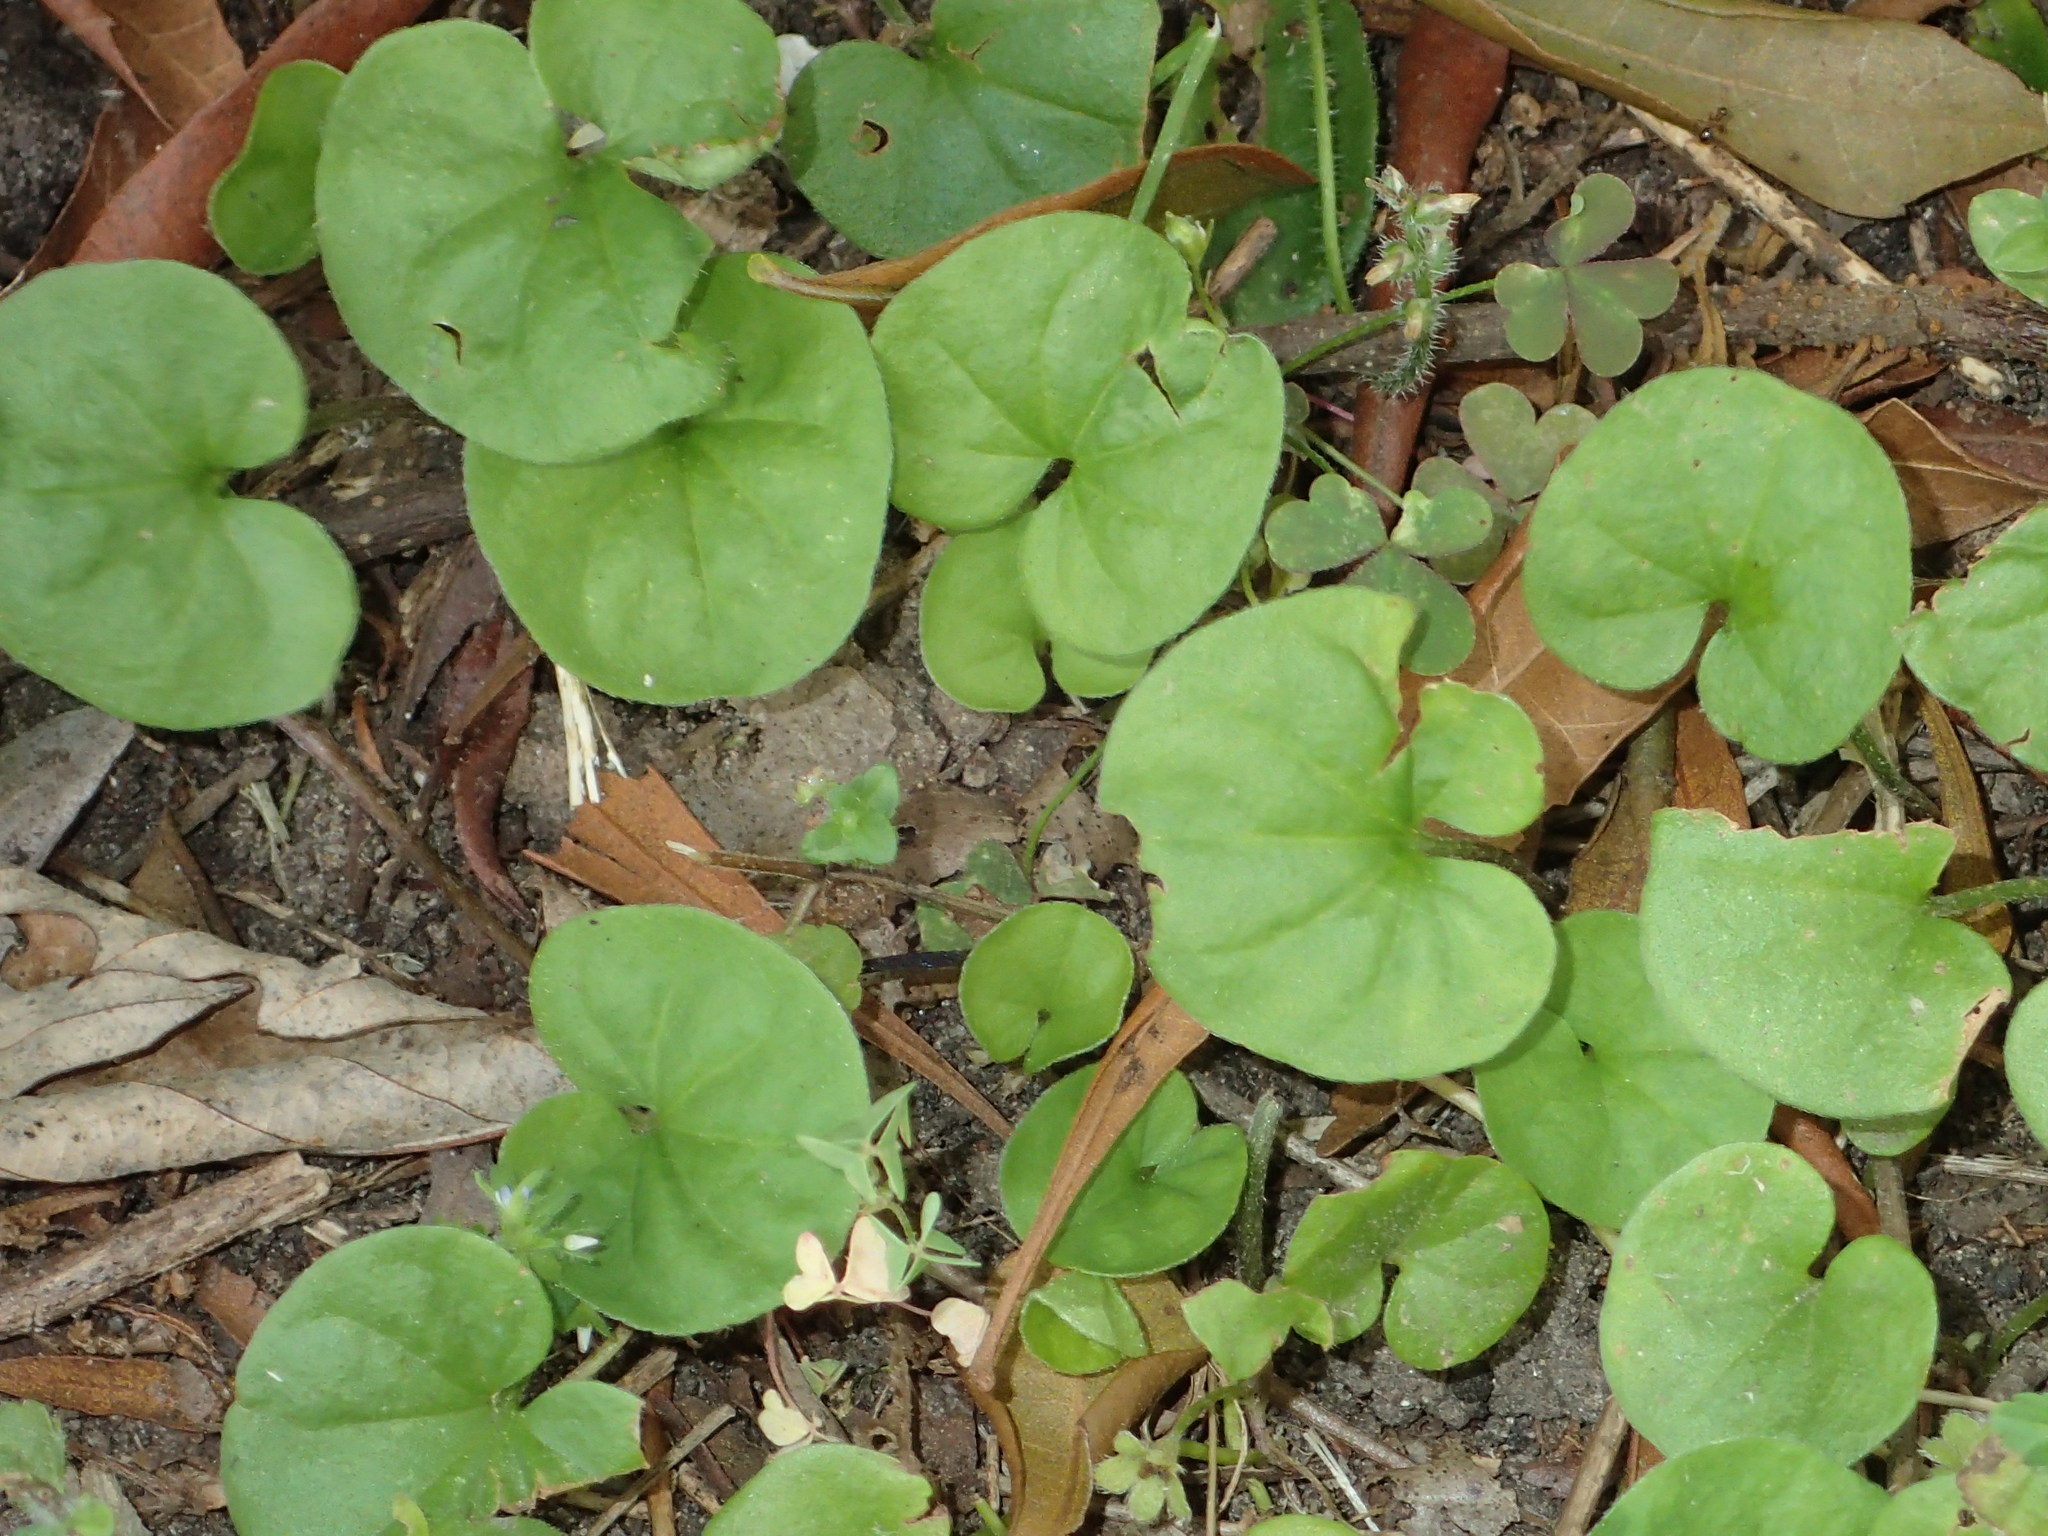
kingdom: Plantae
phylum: Tracheophyta
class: Magnoliopsida
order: Solanales
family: Convolvulaceae
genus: Dichondra
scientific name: Dichondra carolinensis
